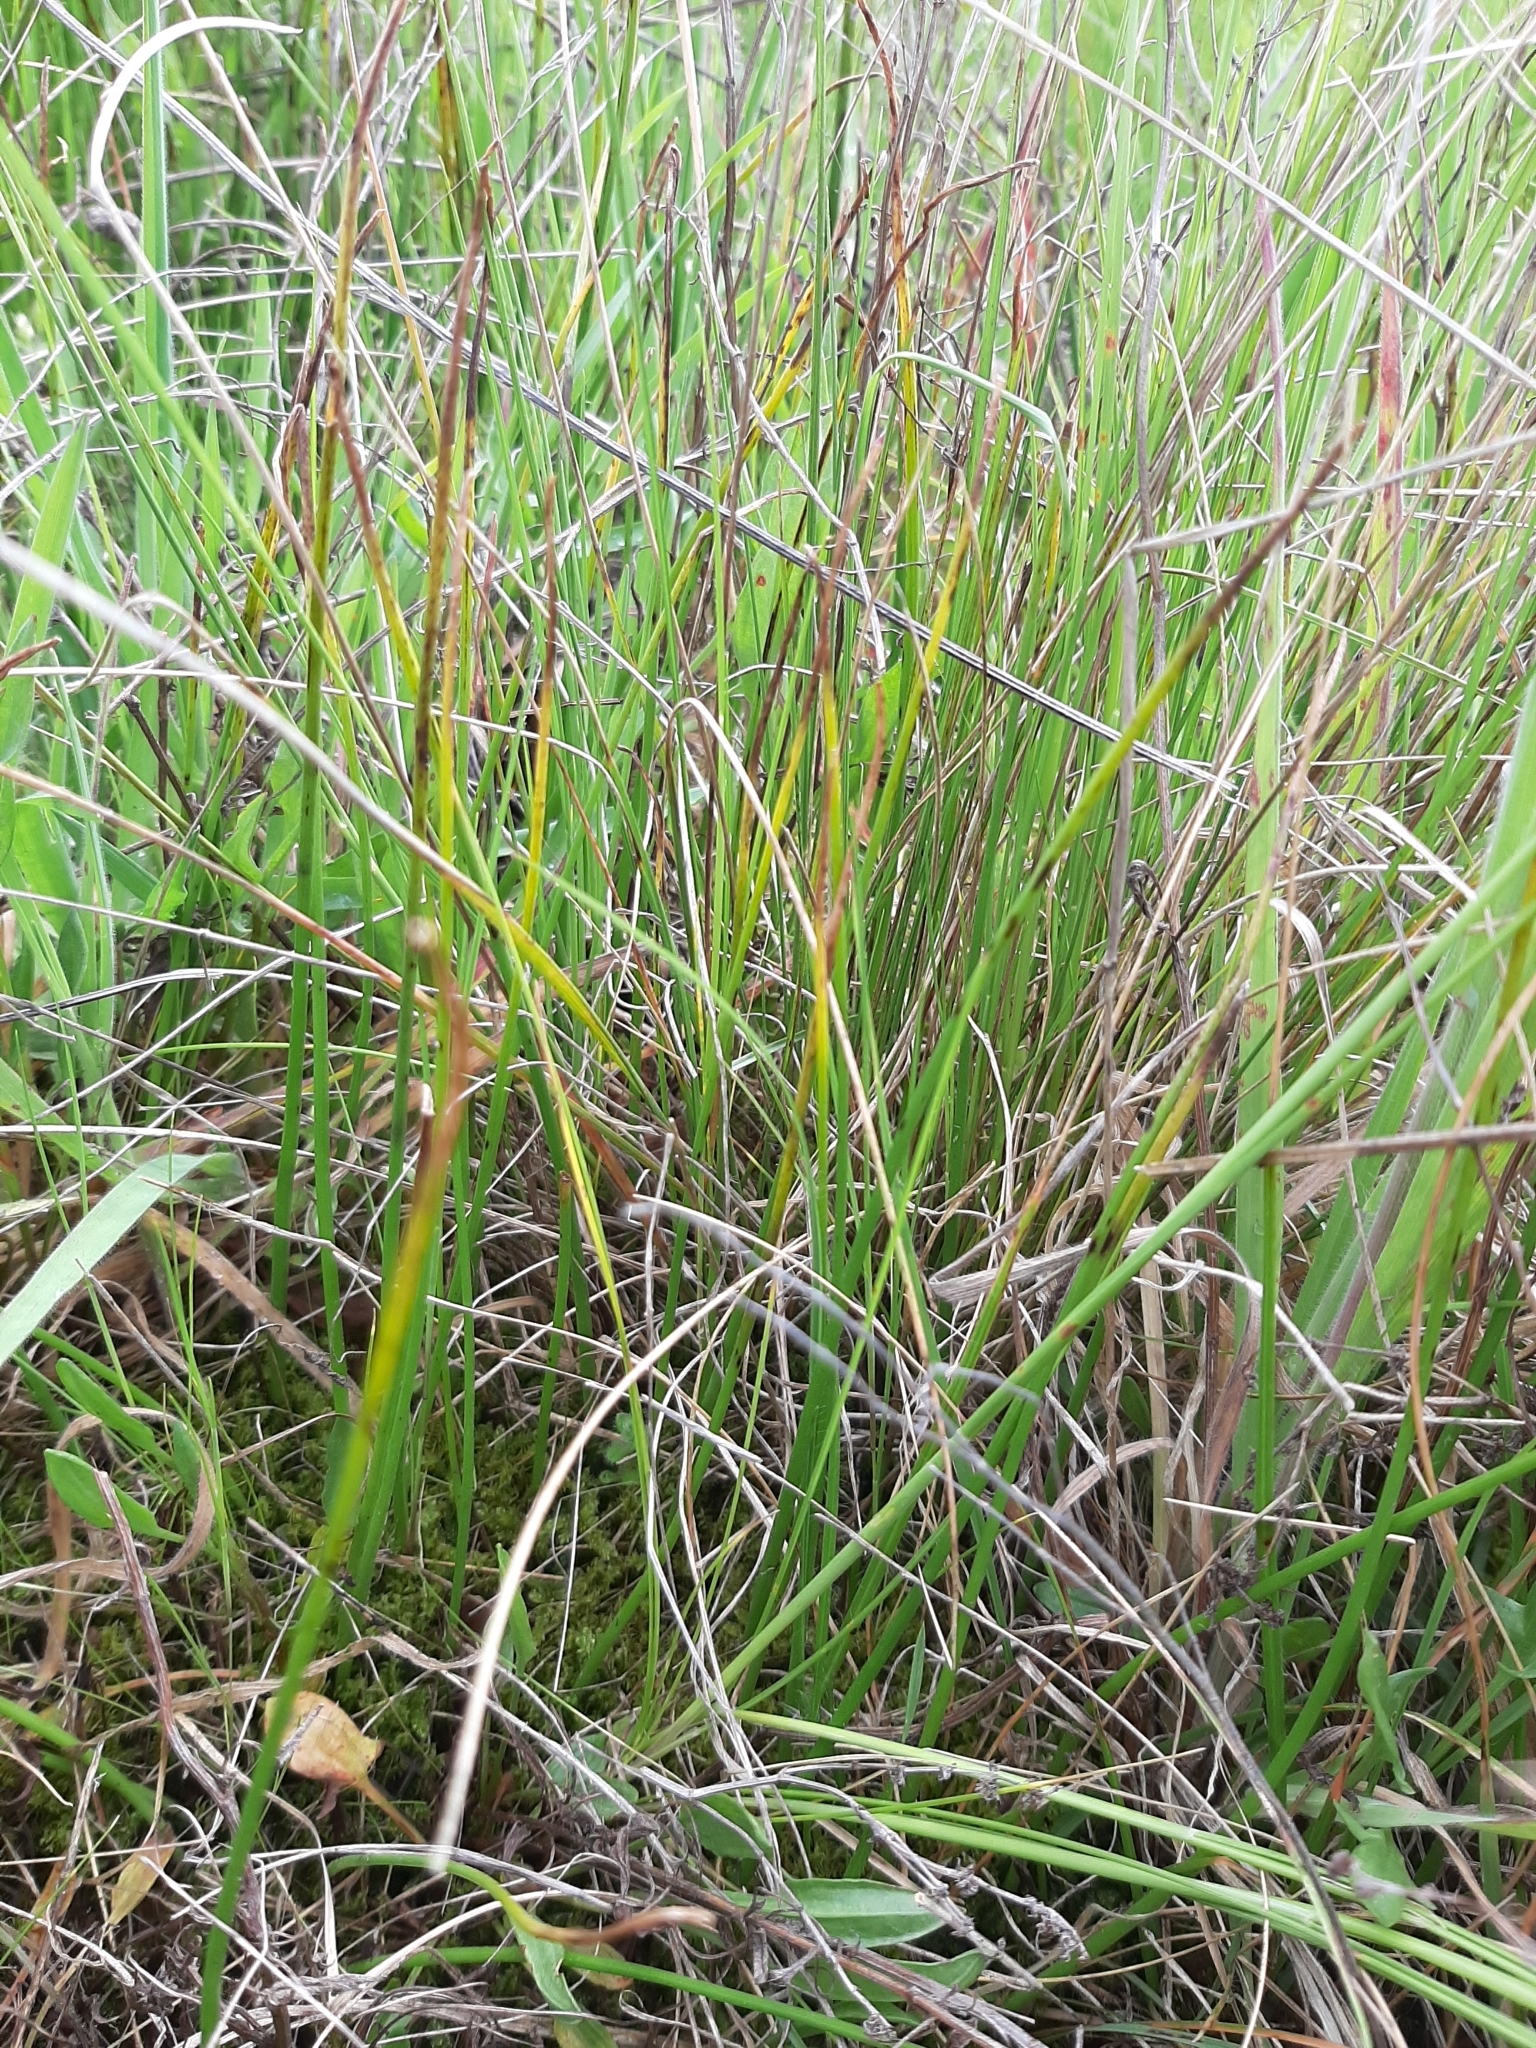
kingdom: Plantae
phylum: Tracheophyta
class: Liliopsida
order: Asparagales
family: Orchidaceae
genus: Microtis
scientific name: Microtis unifolia
